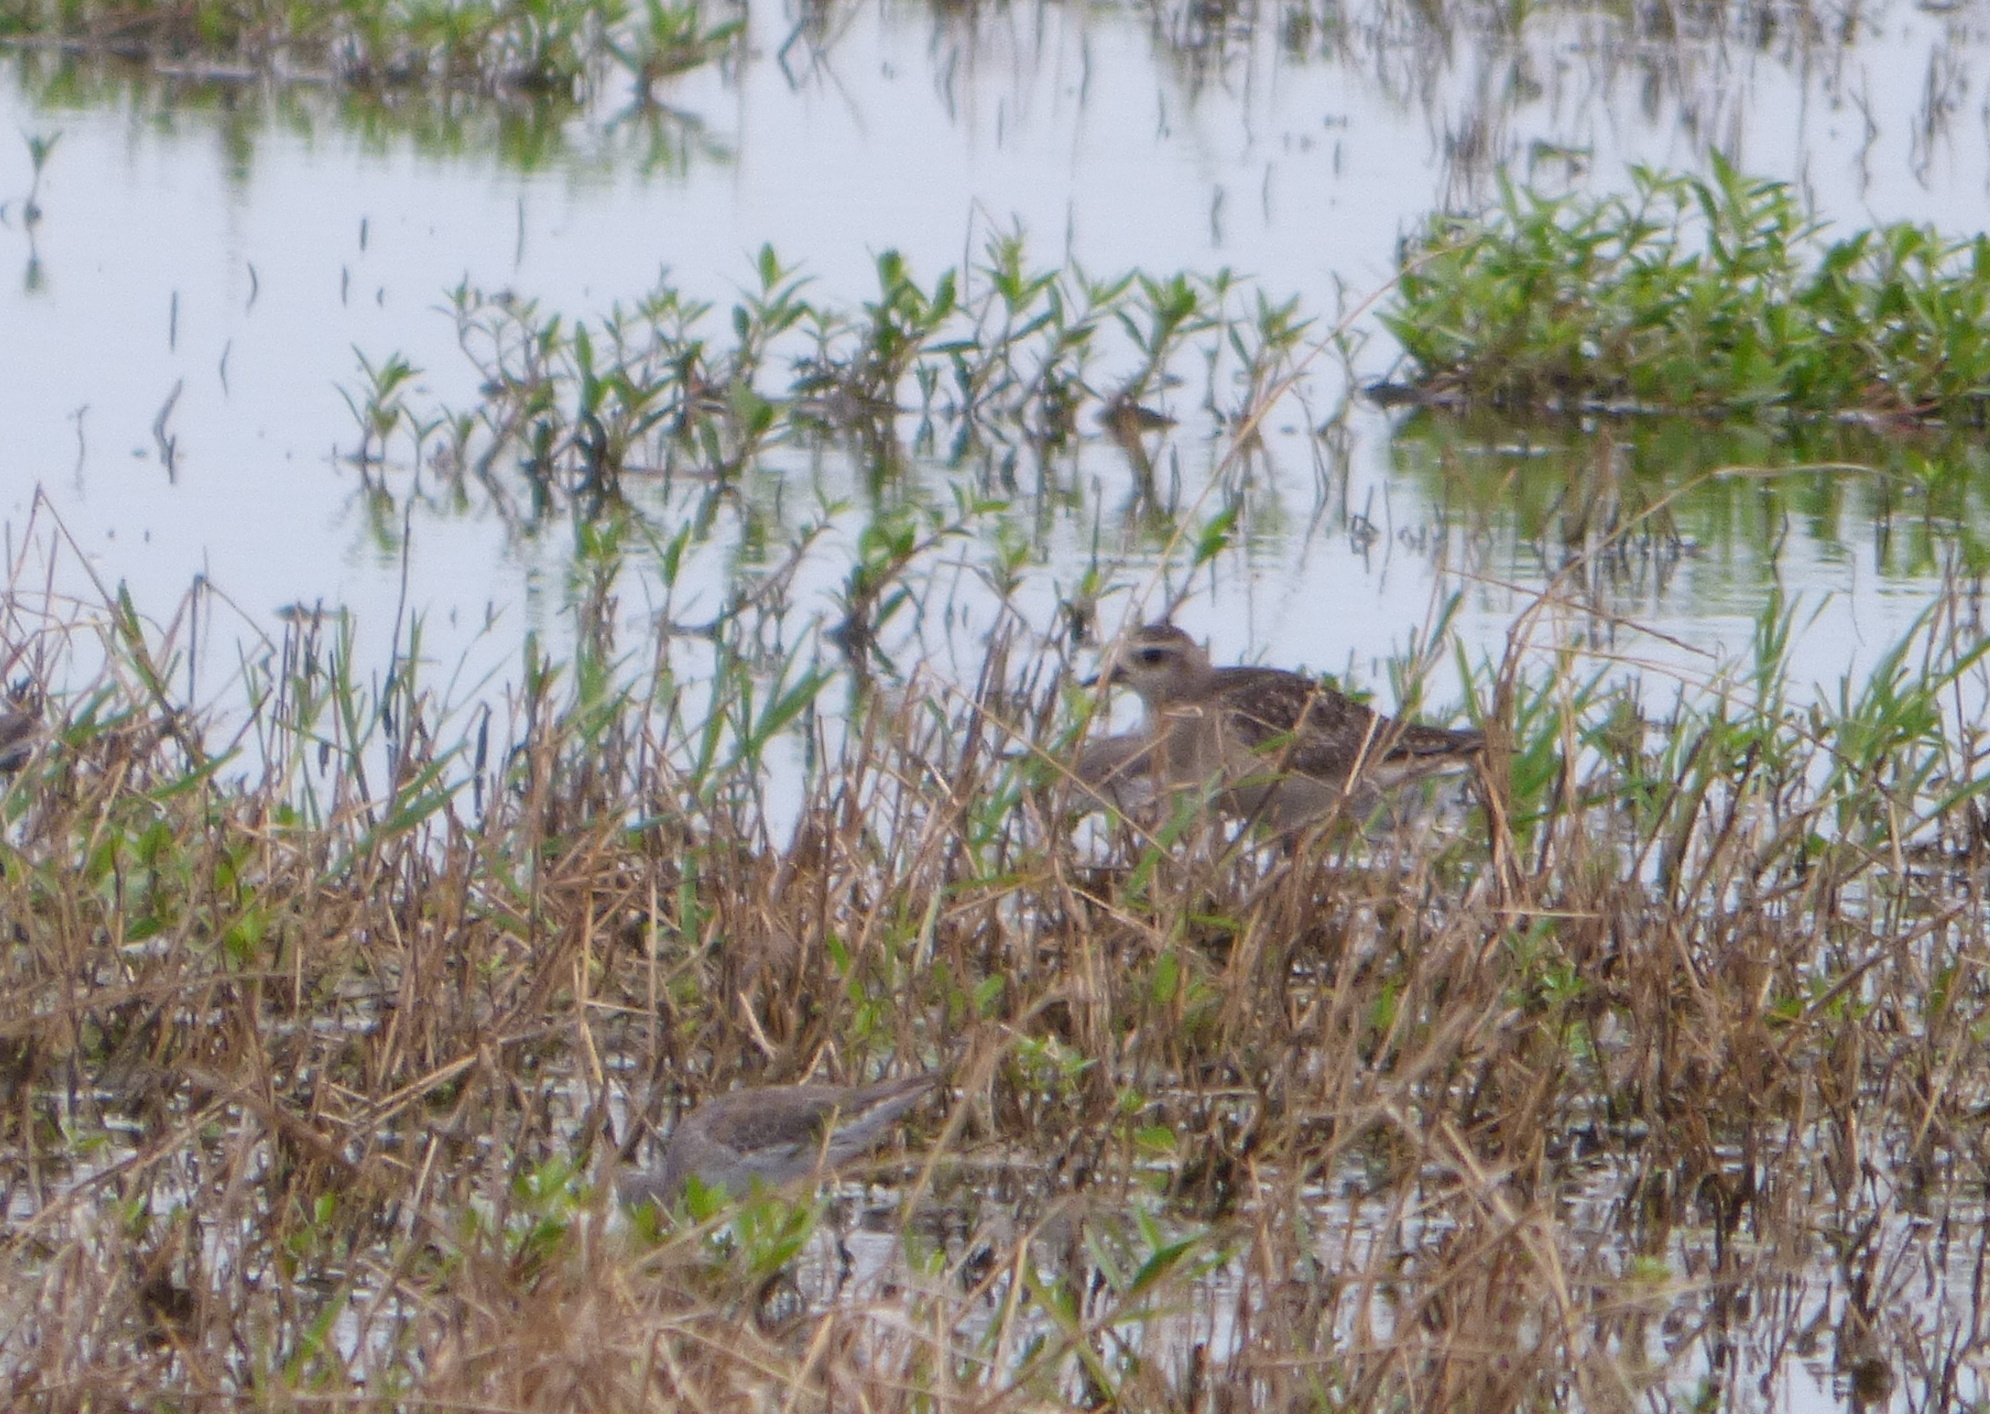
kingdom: Animalia
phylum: Chordata
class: Aves
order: Charadriiformes
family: Charadriidae
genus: Pluvialis
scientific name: Pluvialis dominica
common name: American golden plover
